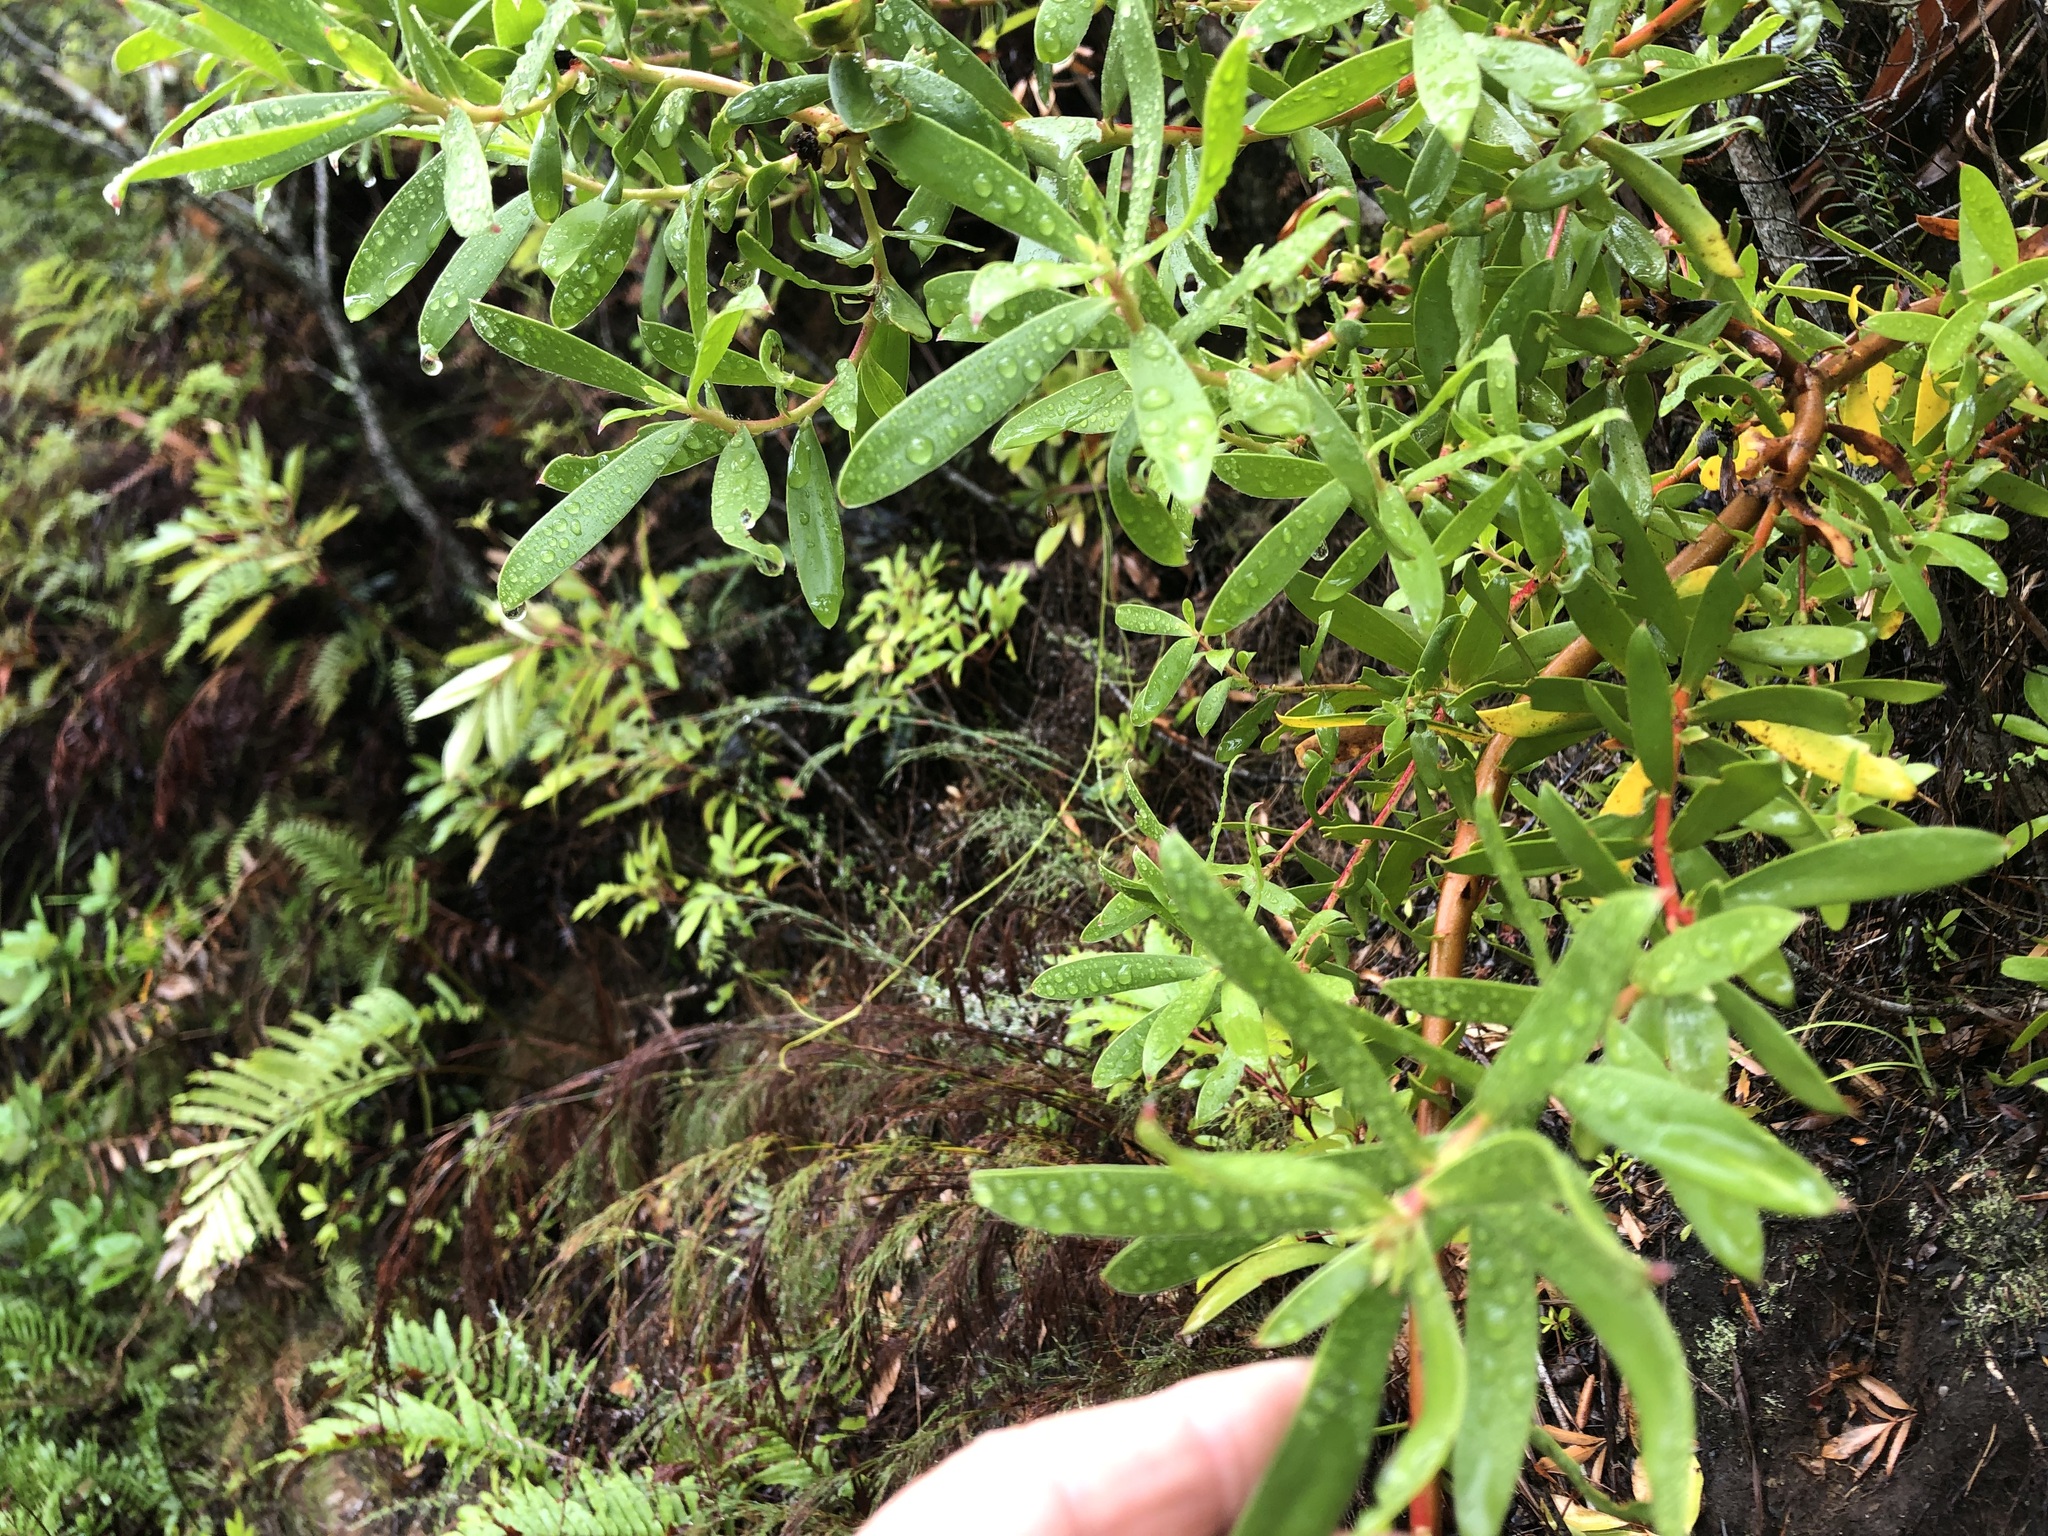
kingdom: Plantae
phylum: Tracheophyta
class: Magnoliopsida
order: Proteales
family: Proteaceae
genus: Leucadendron
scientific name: Leucadendron strobilinum
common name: Mountain rose
